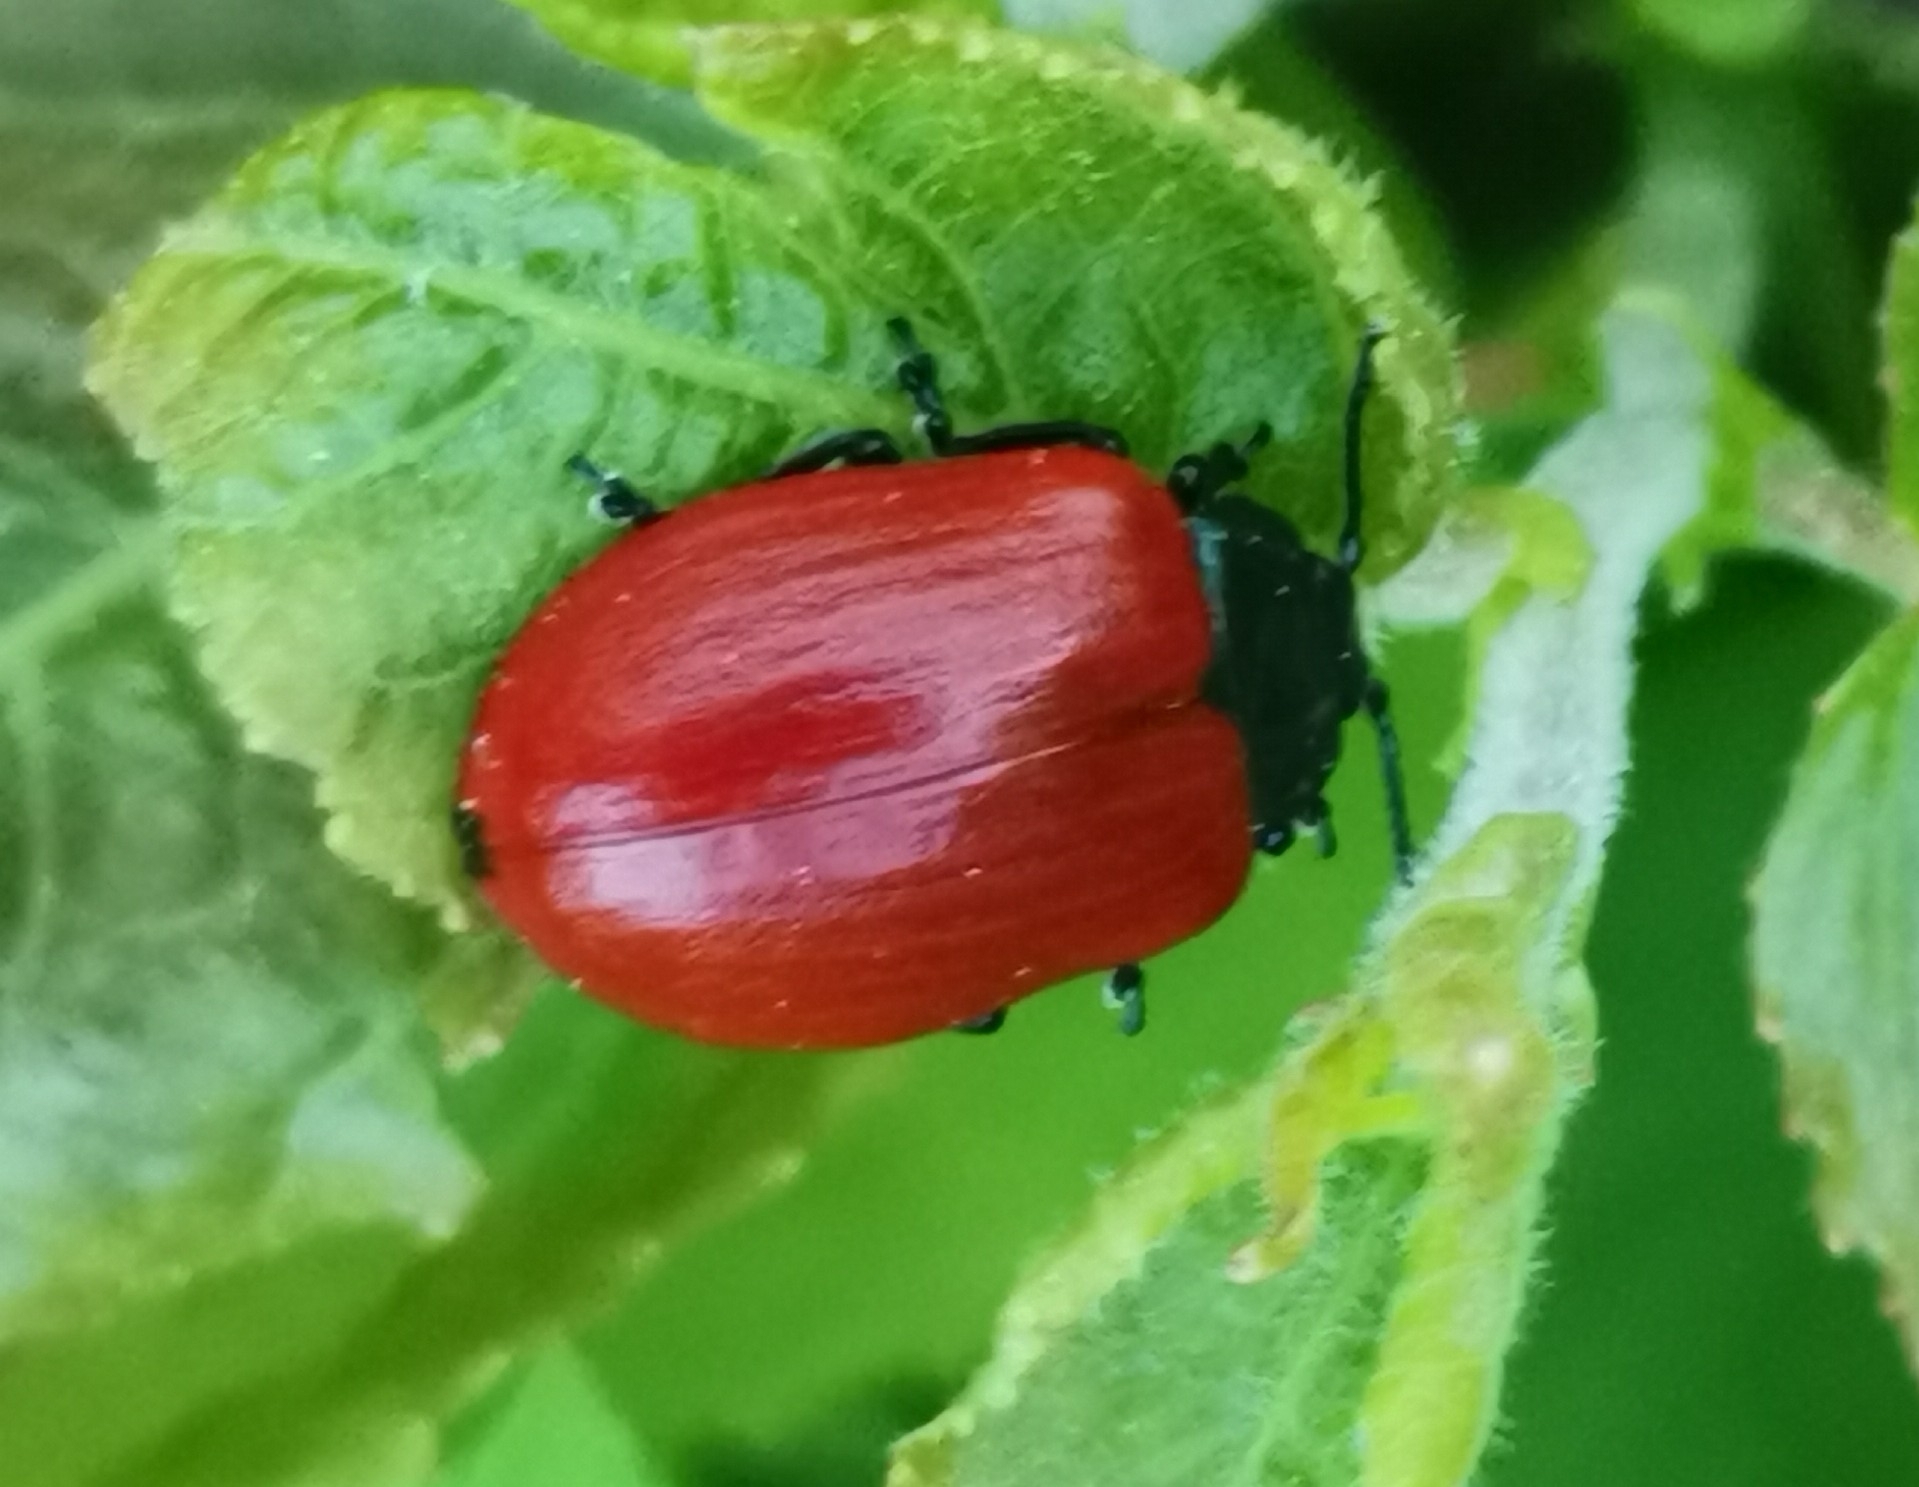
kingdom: Animalia
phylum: Arthropoda
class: Insecta
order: Coleoptera
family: Chrysomelidae
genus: Chrysomela
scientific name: Chrysomela populi
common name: Red poplar leaf beetle
